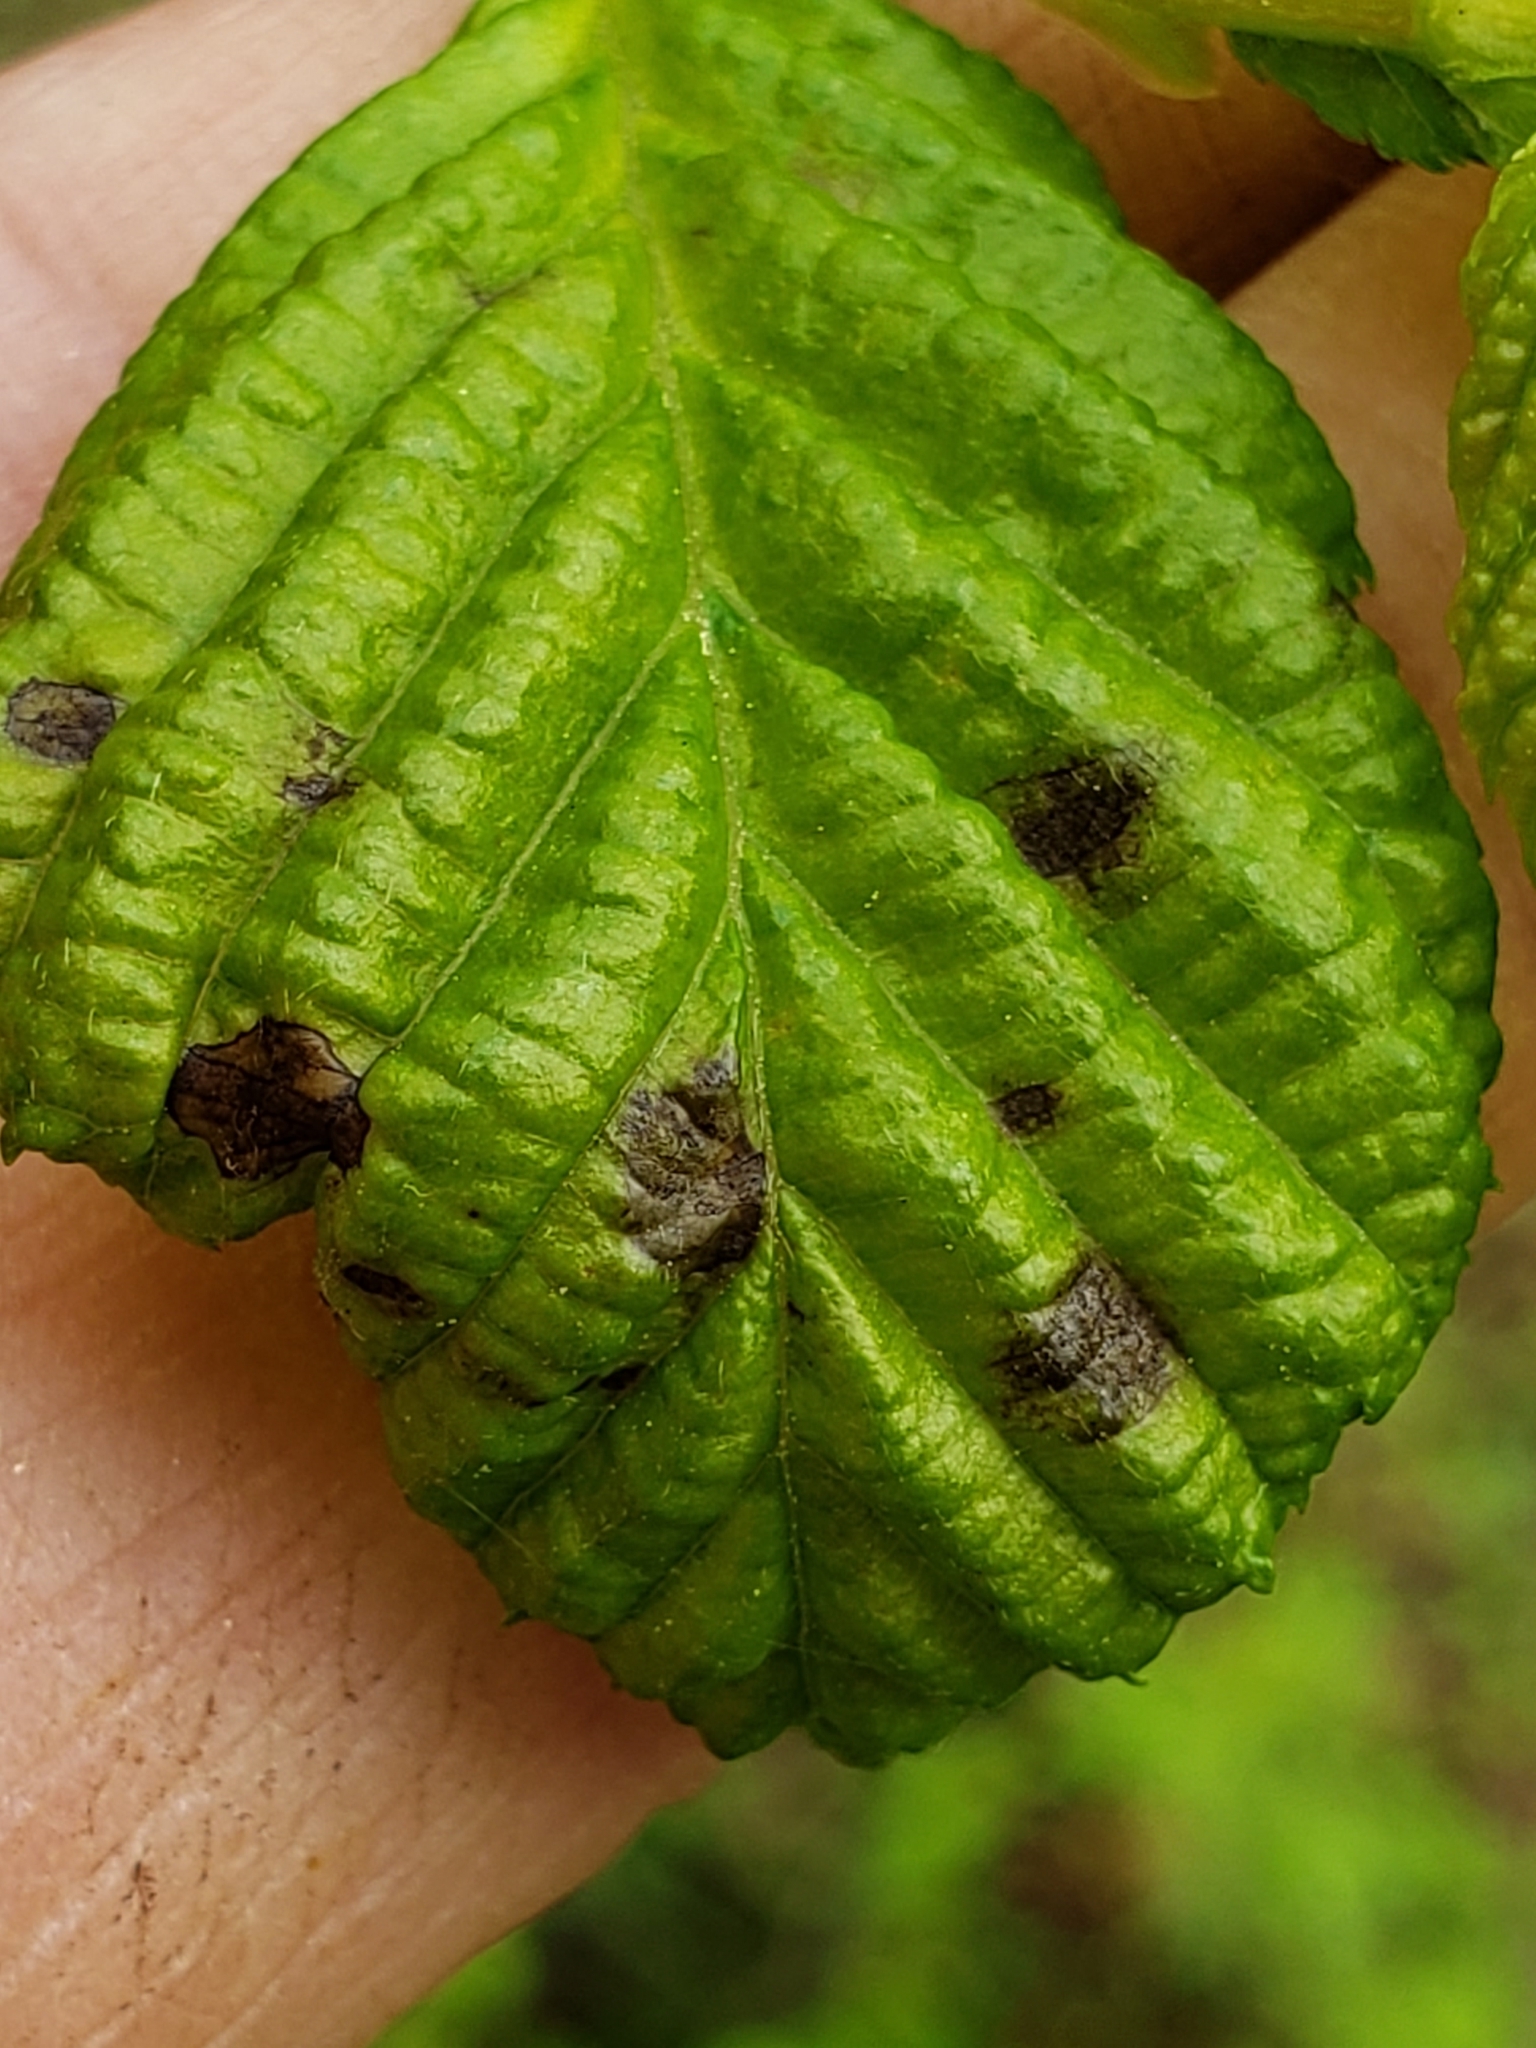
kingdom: Bacteria
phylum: Proteobacteria
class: Gammaproteobacteria
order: Pseudomonadales
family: Pseudomonadaceae
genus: Pseudomonas
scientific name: Pseudomonas syringae
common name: Bacterial speck
